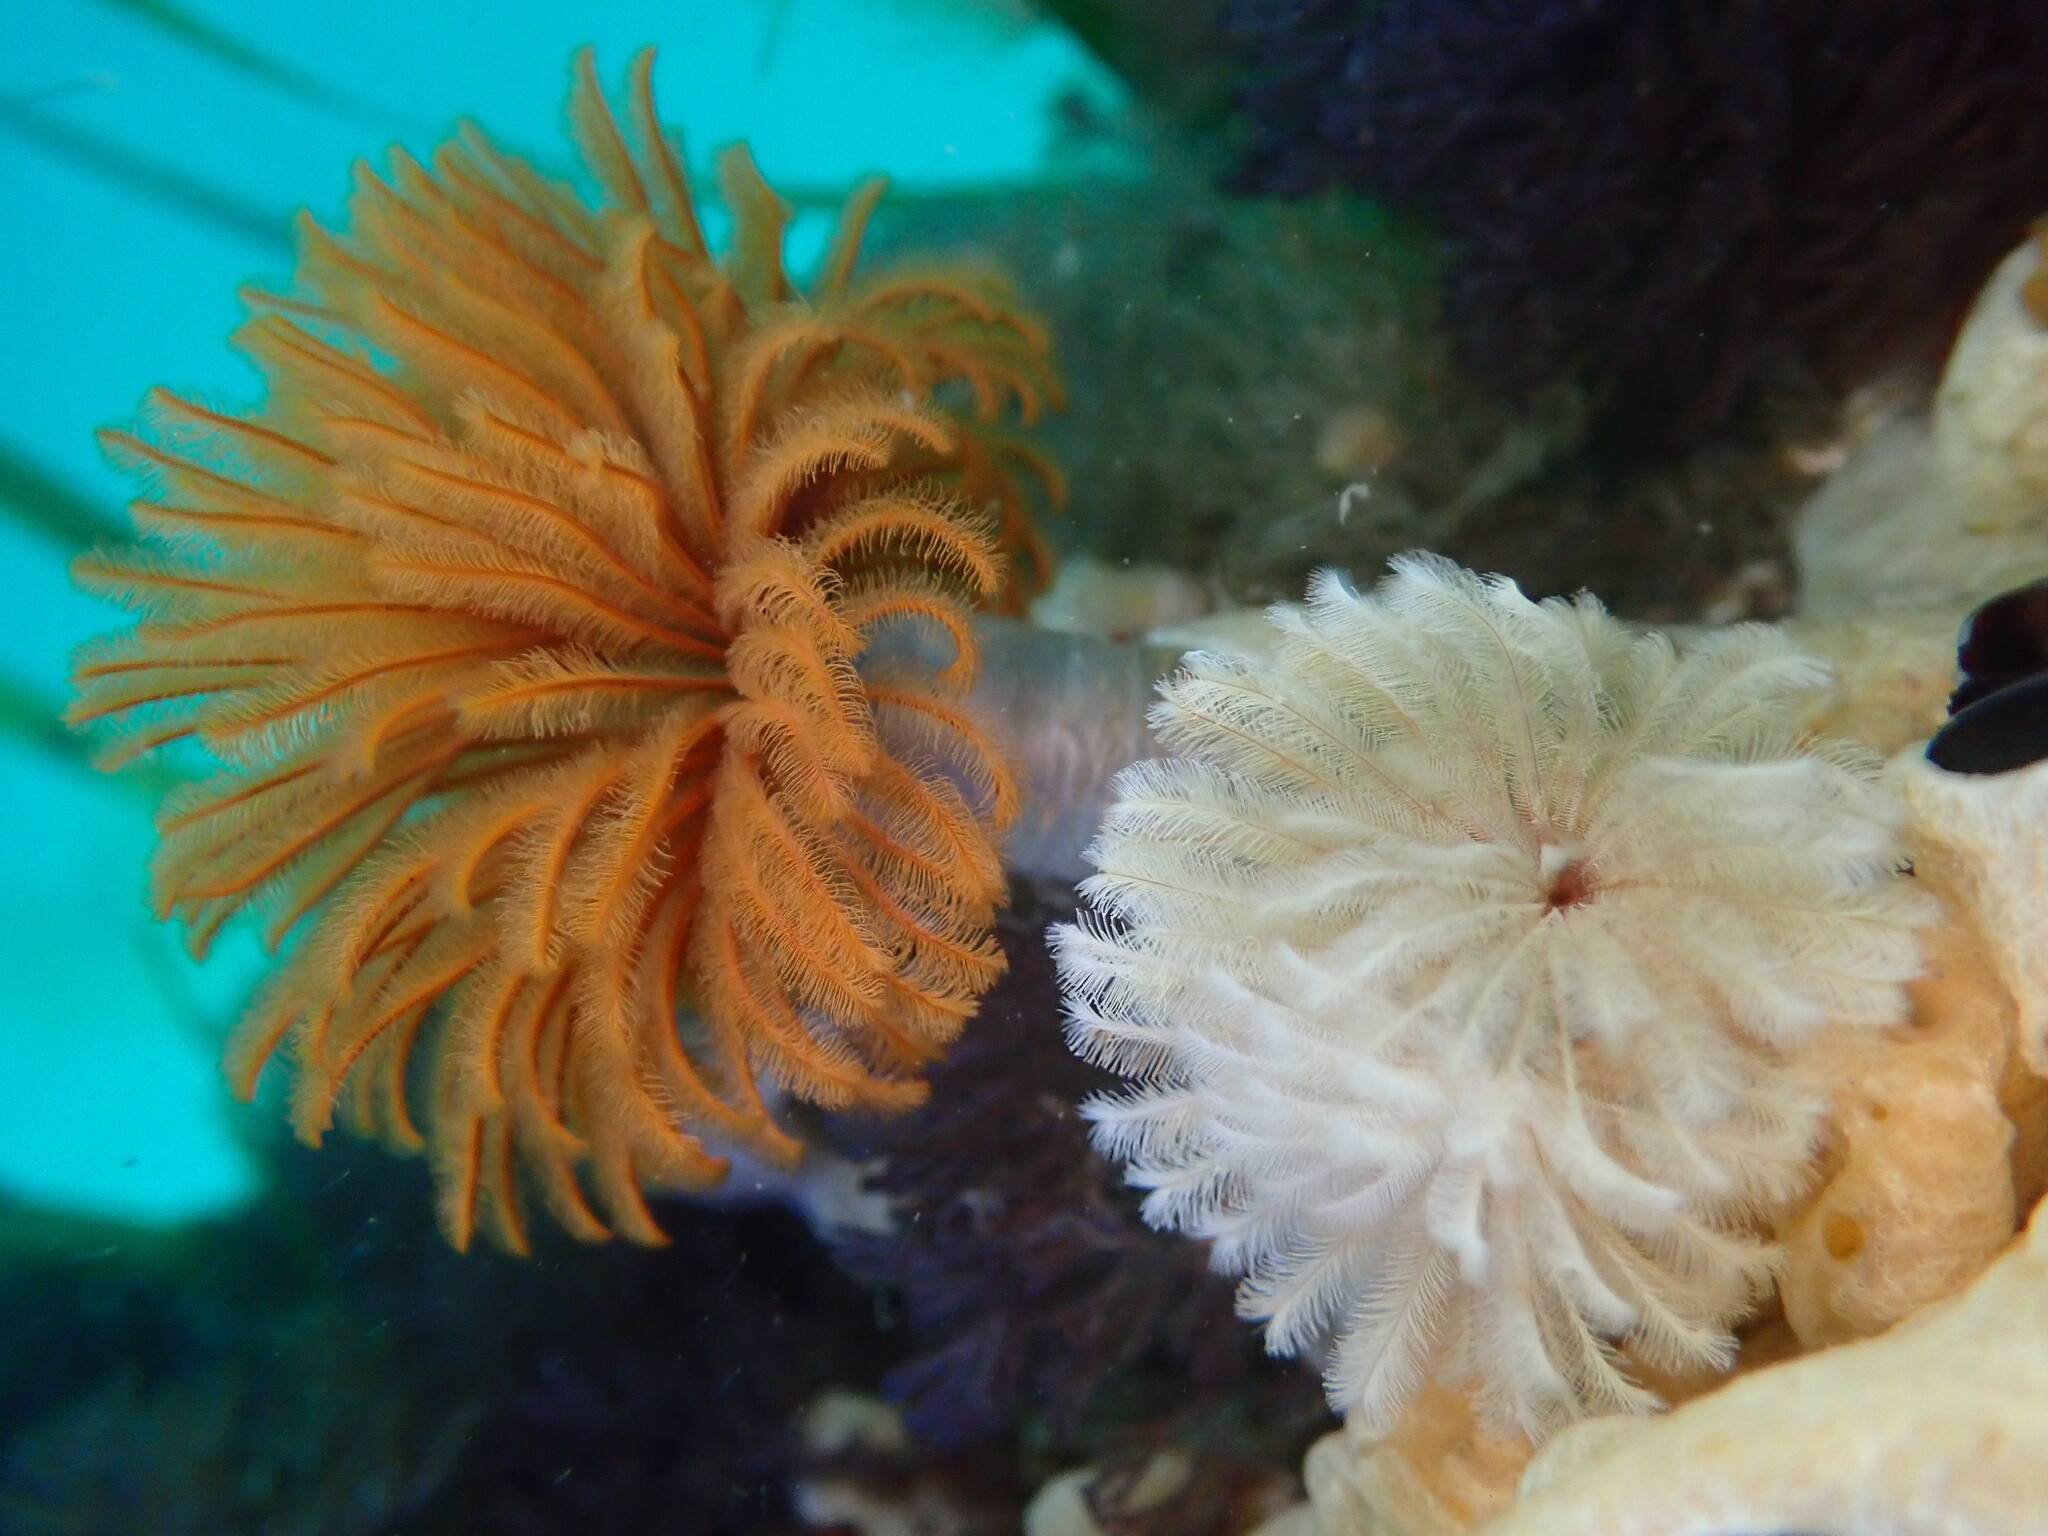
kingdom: Animalia
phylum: Annelida
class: Polychaeta
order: Sabellida
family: Sabellidae
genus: Eudistylia
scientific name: Eudistylia polymorpha
